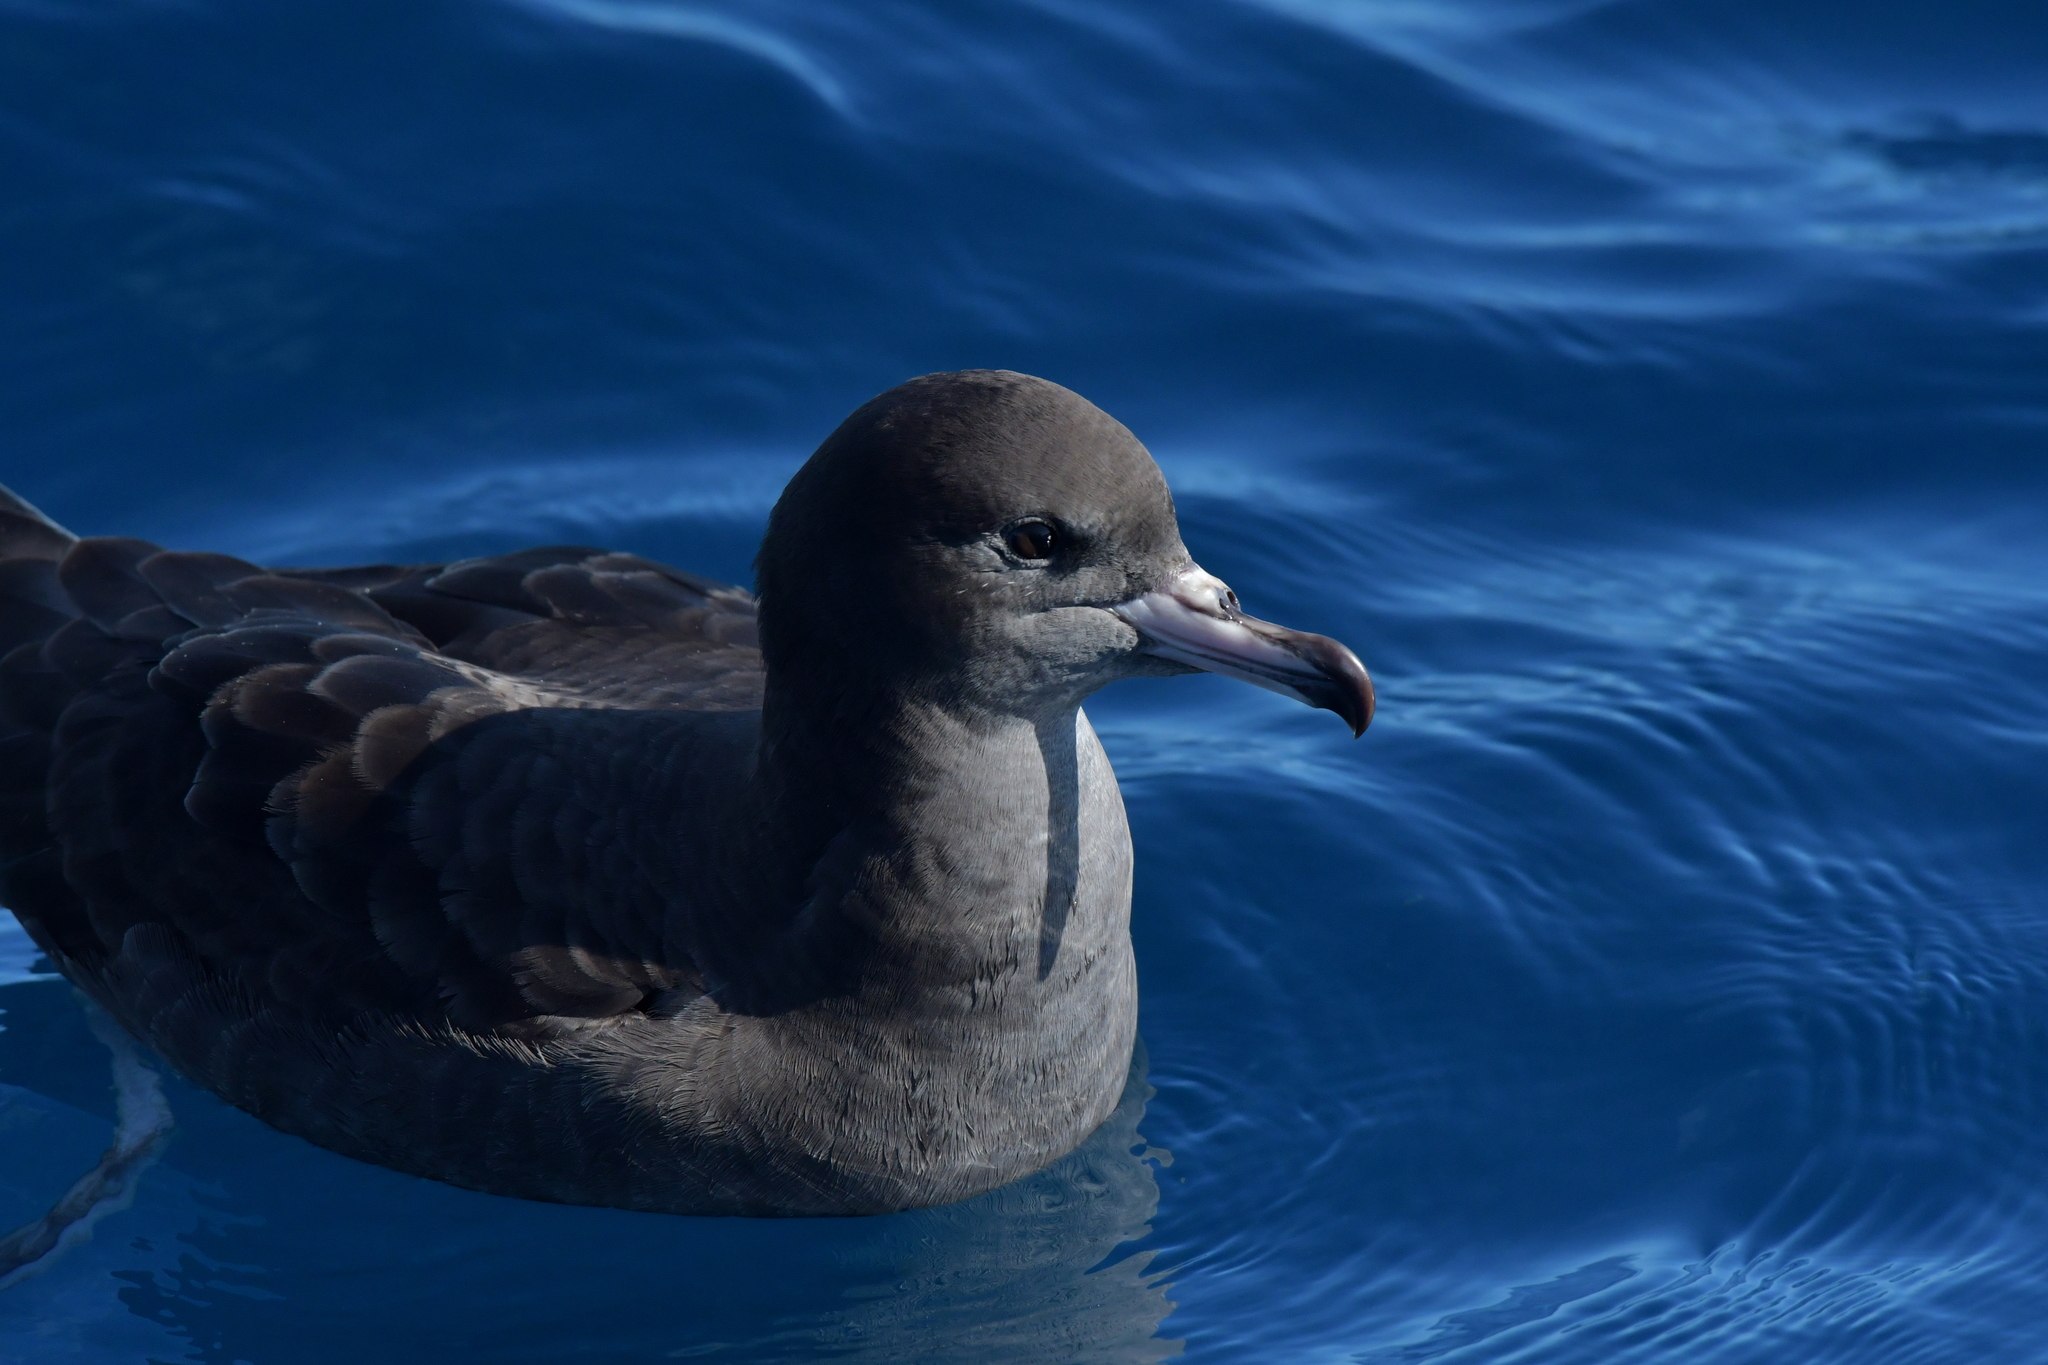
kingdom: Animalia
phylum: Chordata
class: Aves
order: Procellariiformes
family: Procellariidae
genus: Puffinus
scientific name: Puffinus carneipes
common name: Flesh-footed shearwater
